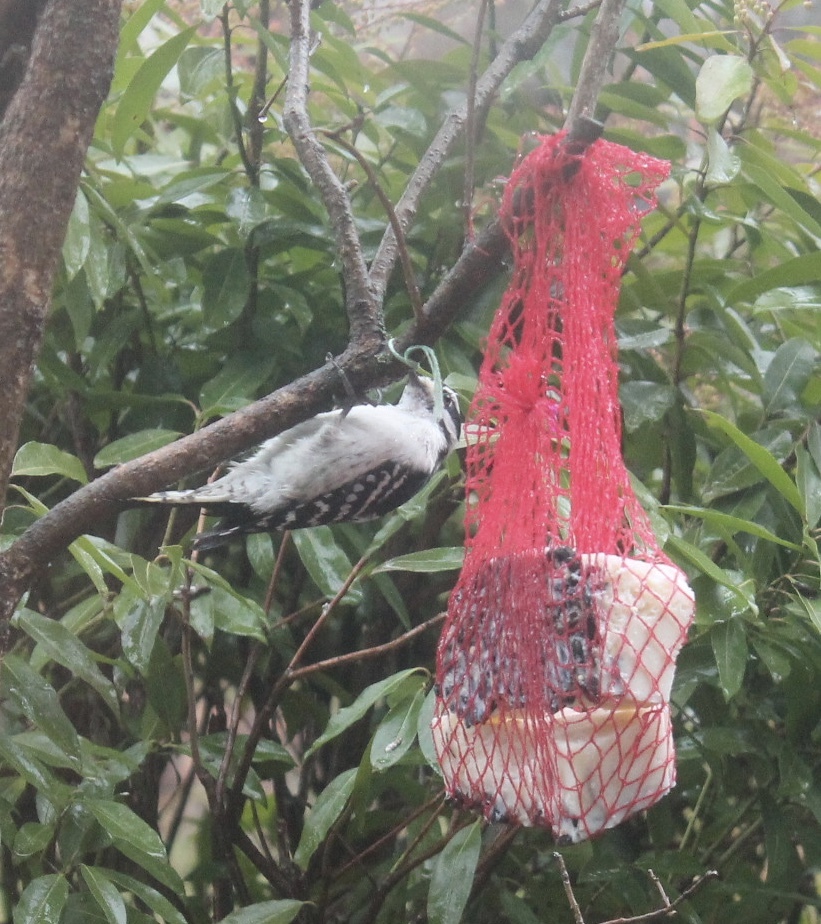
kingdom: Animalia
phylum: Chordata
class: Aves
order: Piciformes
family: Picidae
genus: Dryobates
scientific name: Dryobates pubescens
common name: Downy woodpecker
